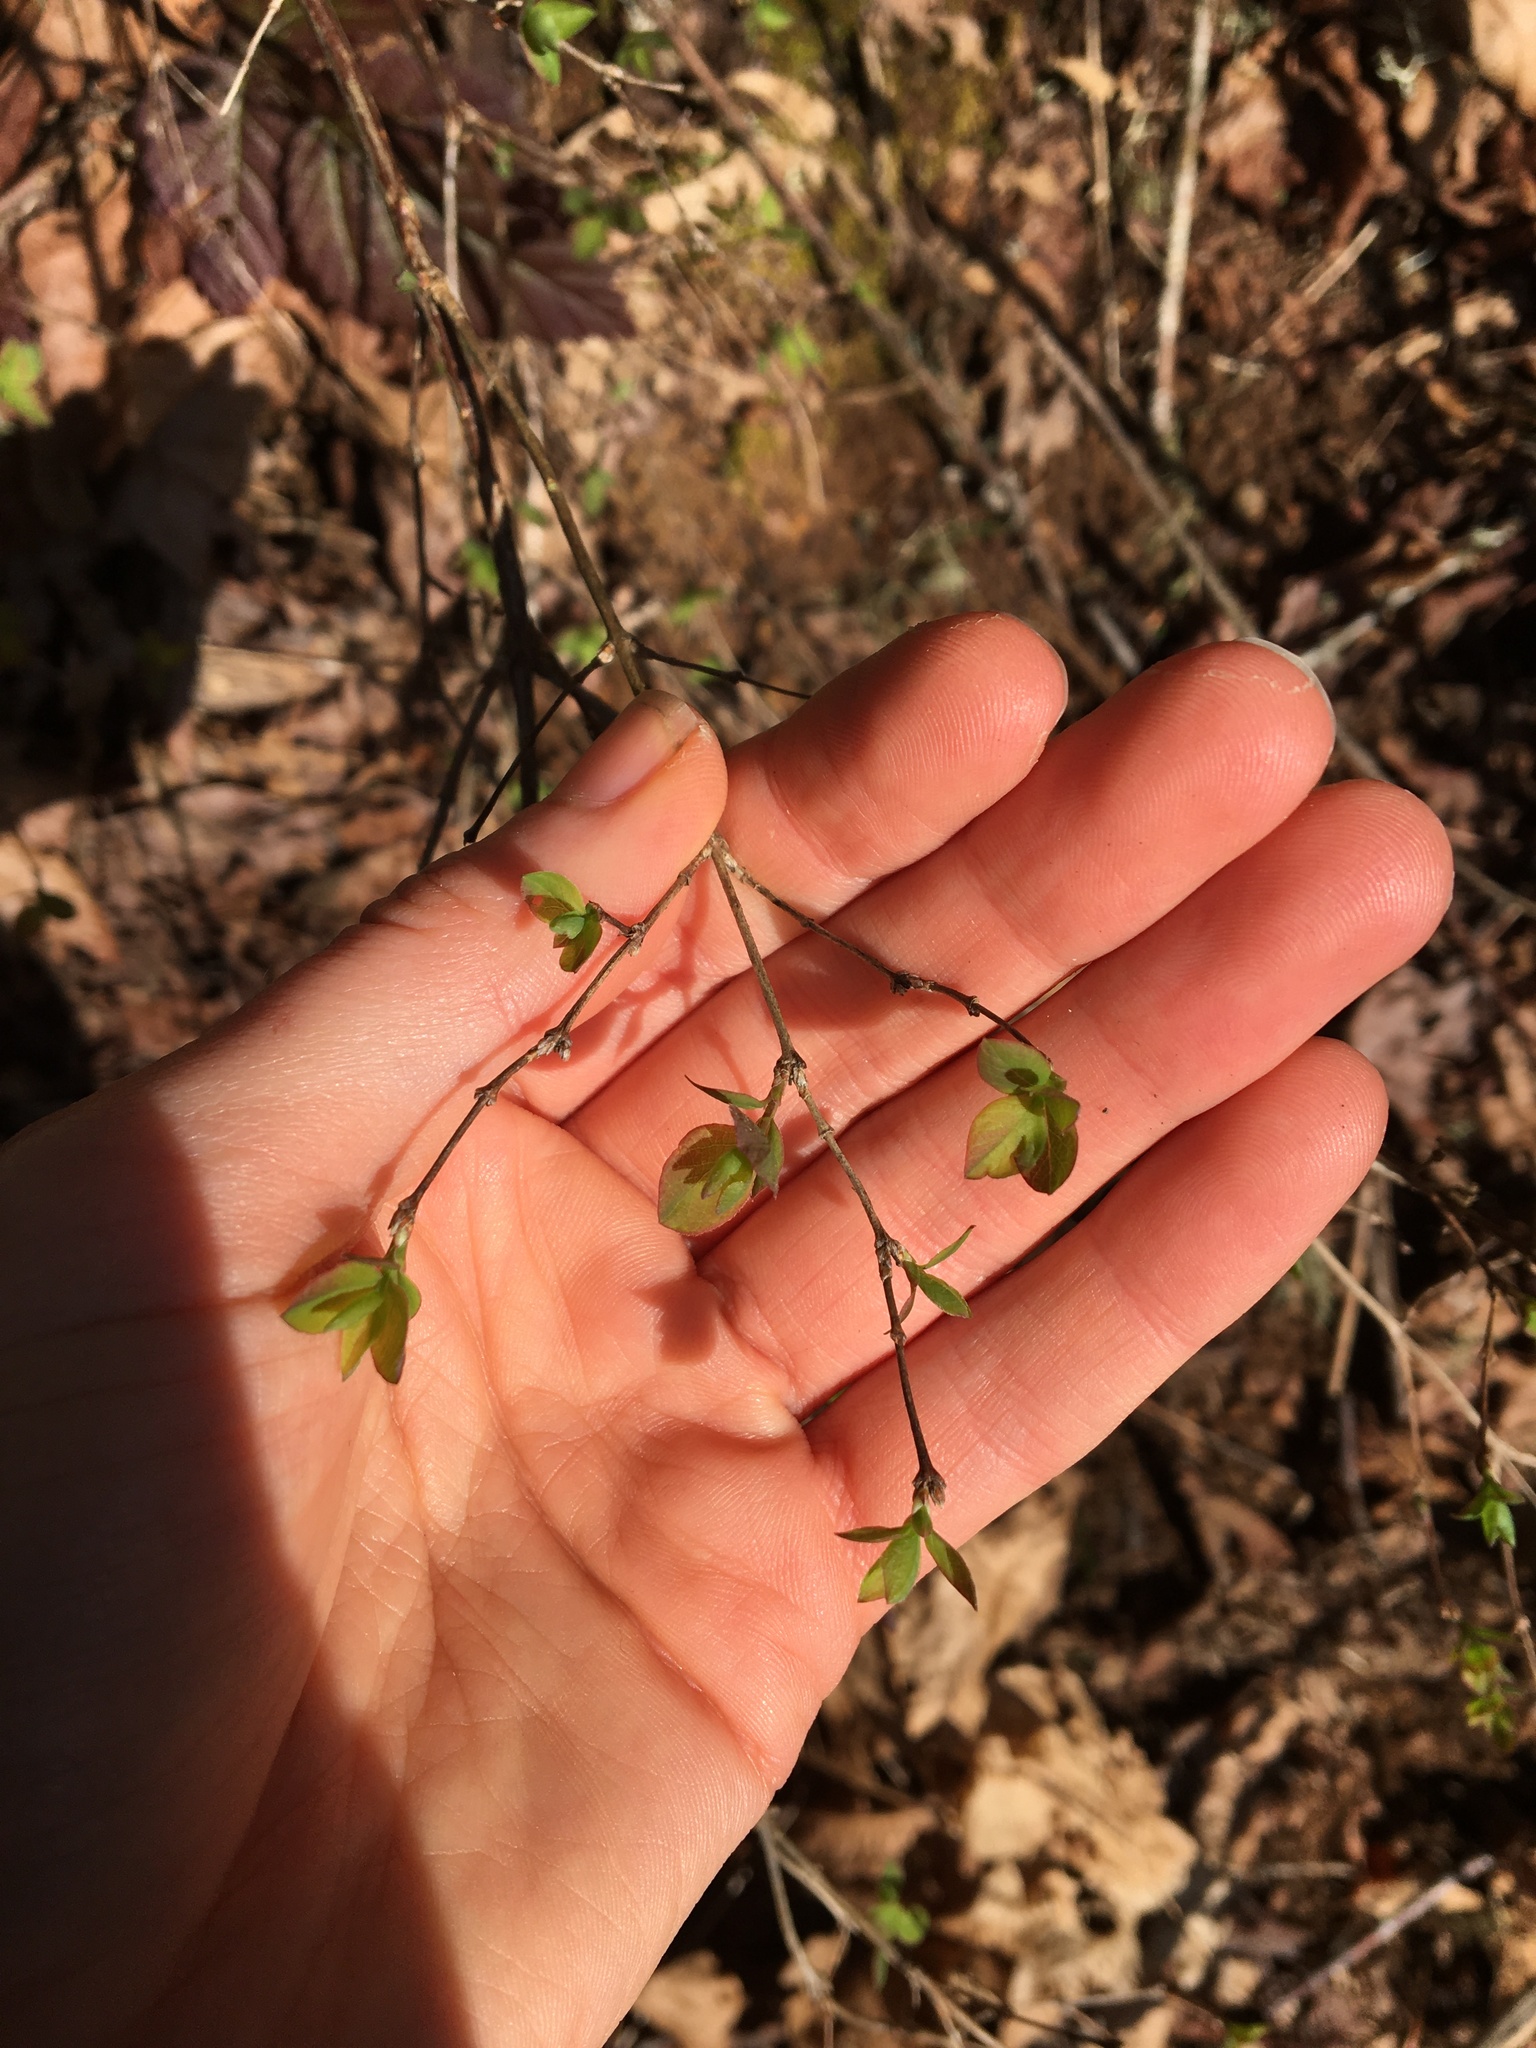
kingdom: Plantae
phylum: Tracheophyta
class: Magnoliopsida
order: Dipsacales
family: Caprifoliaceae
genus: Symphoricarpos
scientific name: Symphoricarpos albus
